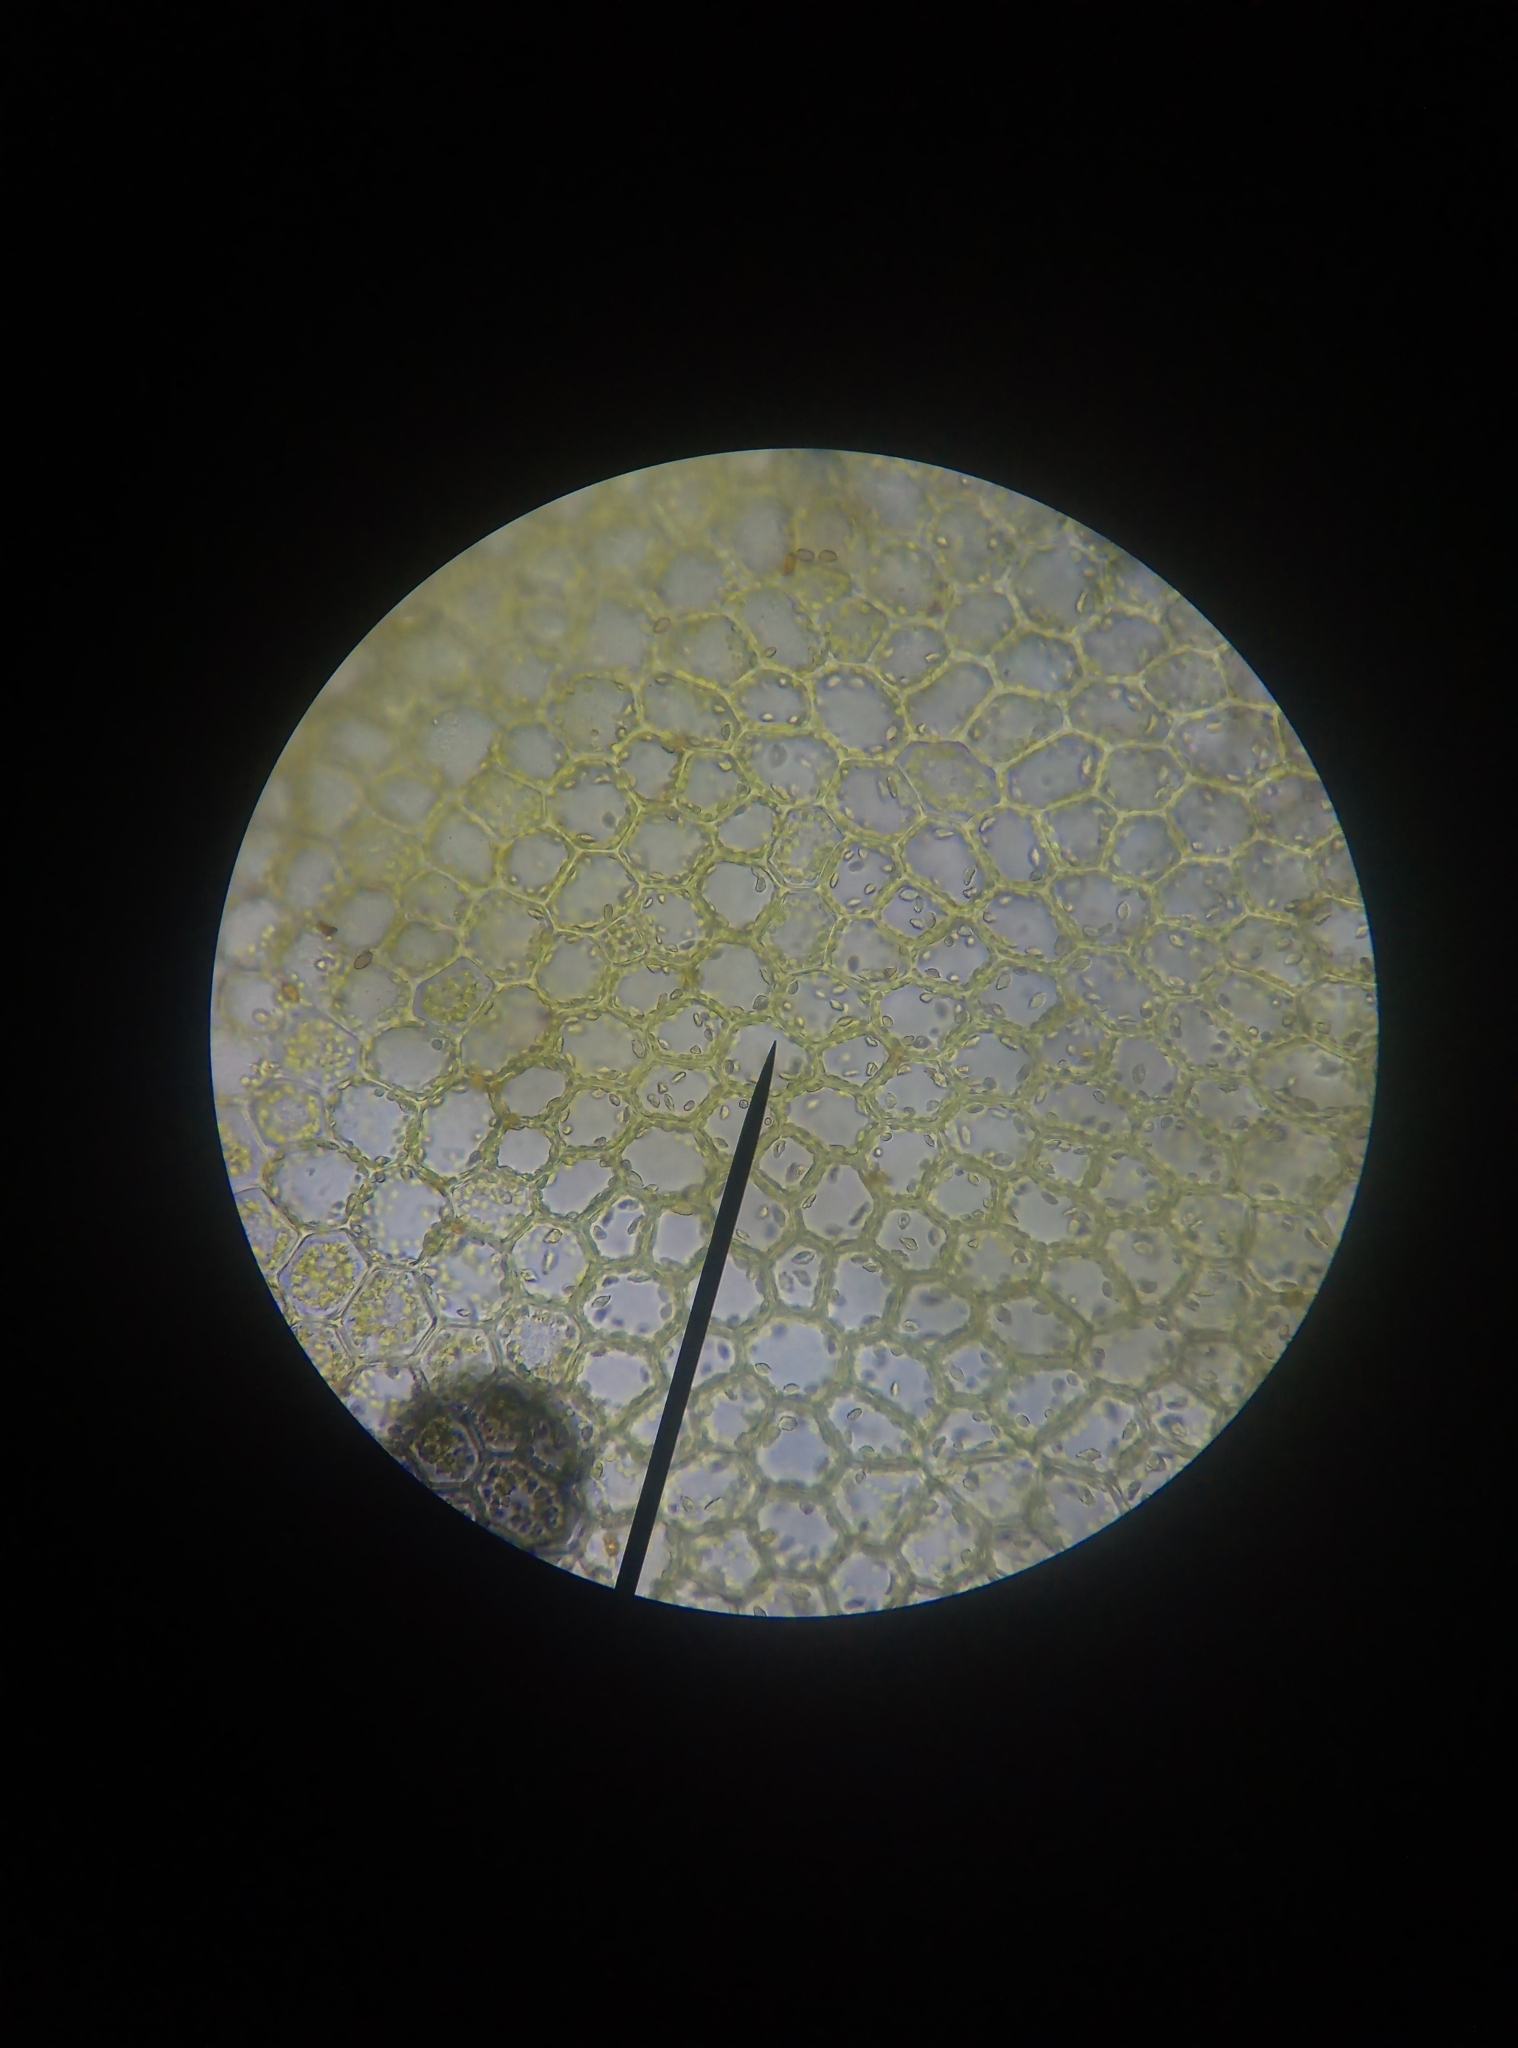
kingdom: Plantae
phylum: Marchantiophyta
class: Jungermanniopsida
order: Jungermanniales
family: Lophocoleaceae
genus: Lophocolea
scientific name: Lophocolea heterophylla
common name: Variable-leaved crestwort
